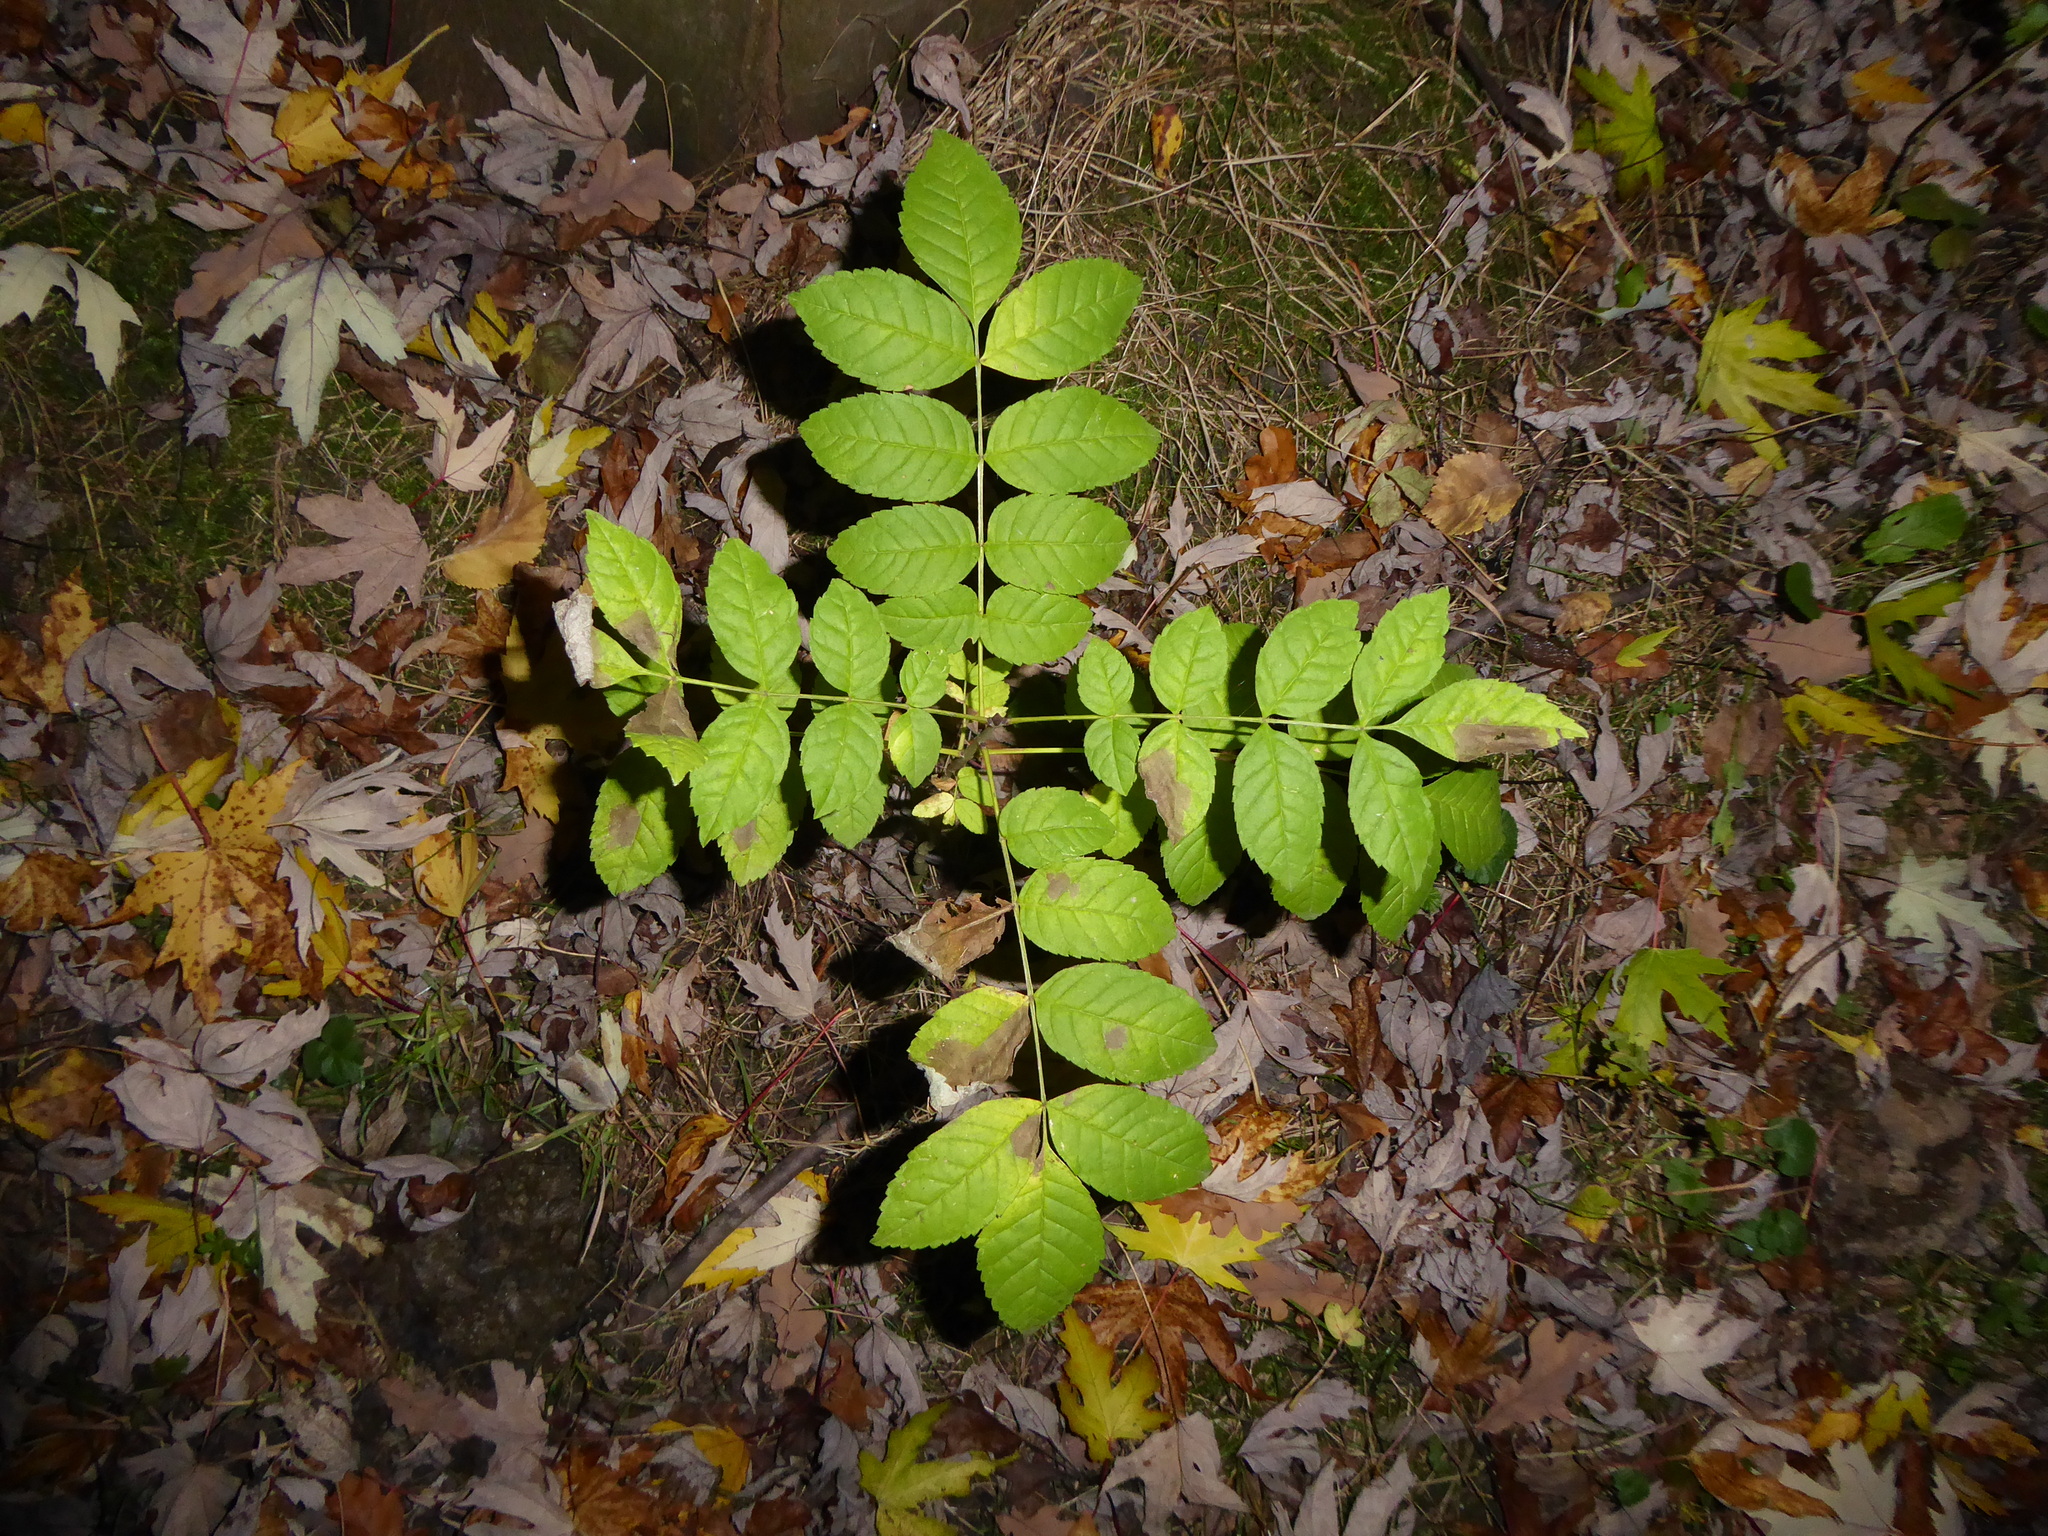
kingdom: Plantae
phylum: Tracheophyta
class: Magnoliopsida
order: Lamiales
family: Oleaceae
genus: Fraxinus
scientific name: Fraxinus excelsior
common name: European ash
